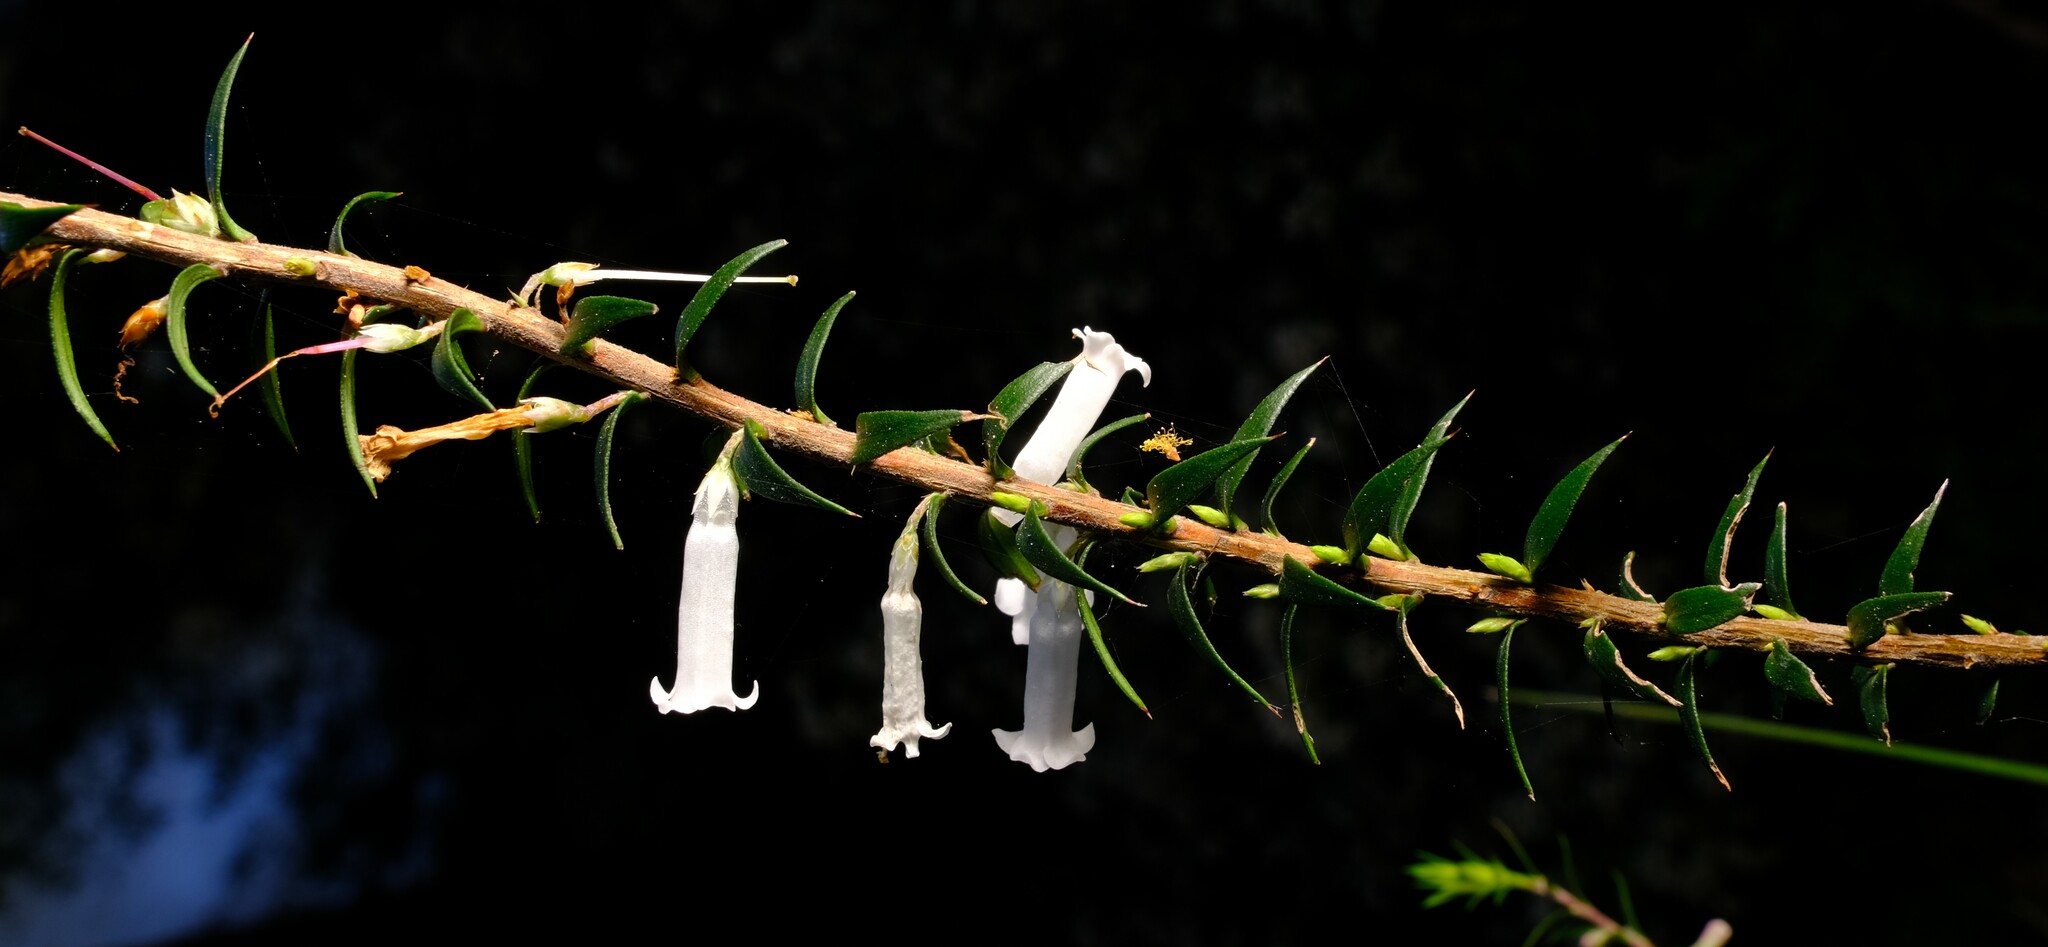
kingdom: Plantae
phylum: Tracheophyta
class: Magnoliopsida
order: Ericales
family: Ericaceae
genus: Epacris
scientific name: Epacris impressa
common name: Common-heath
